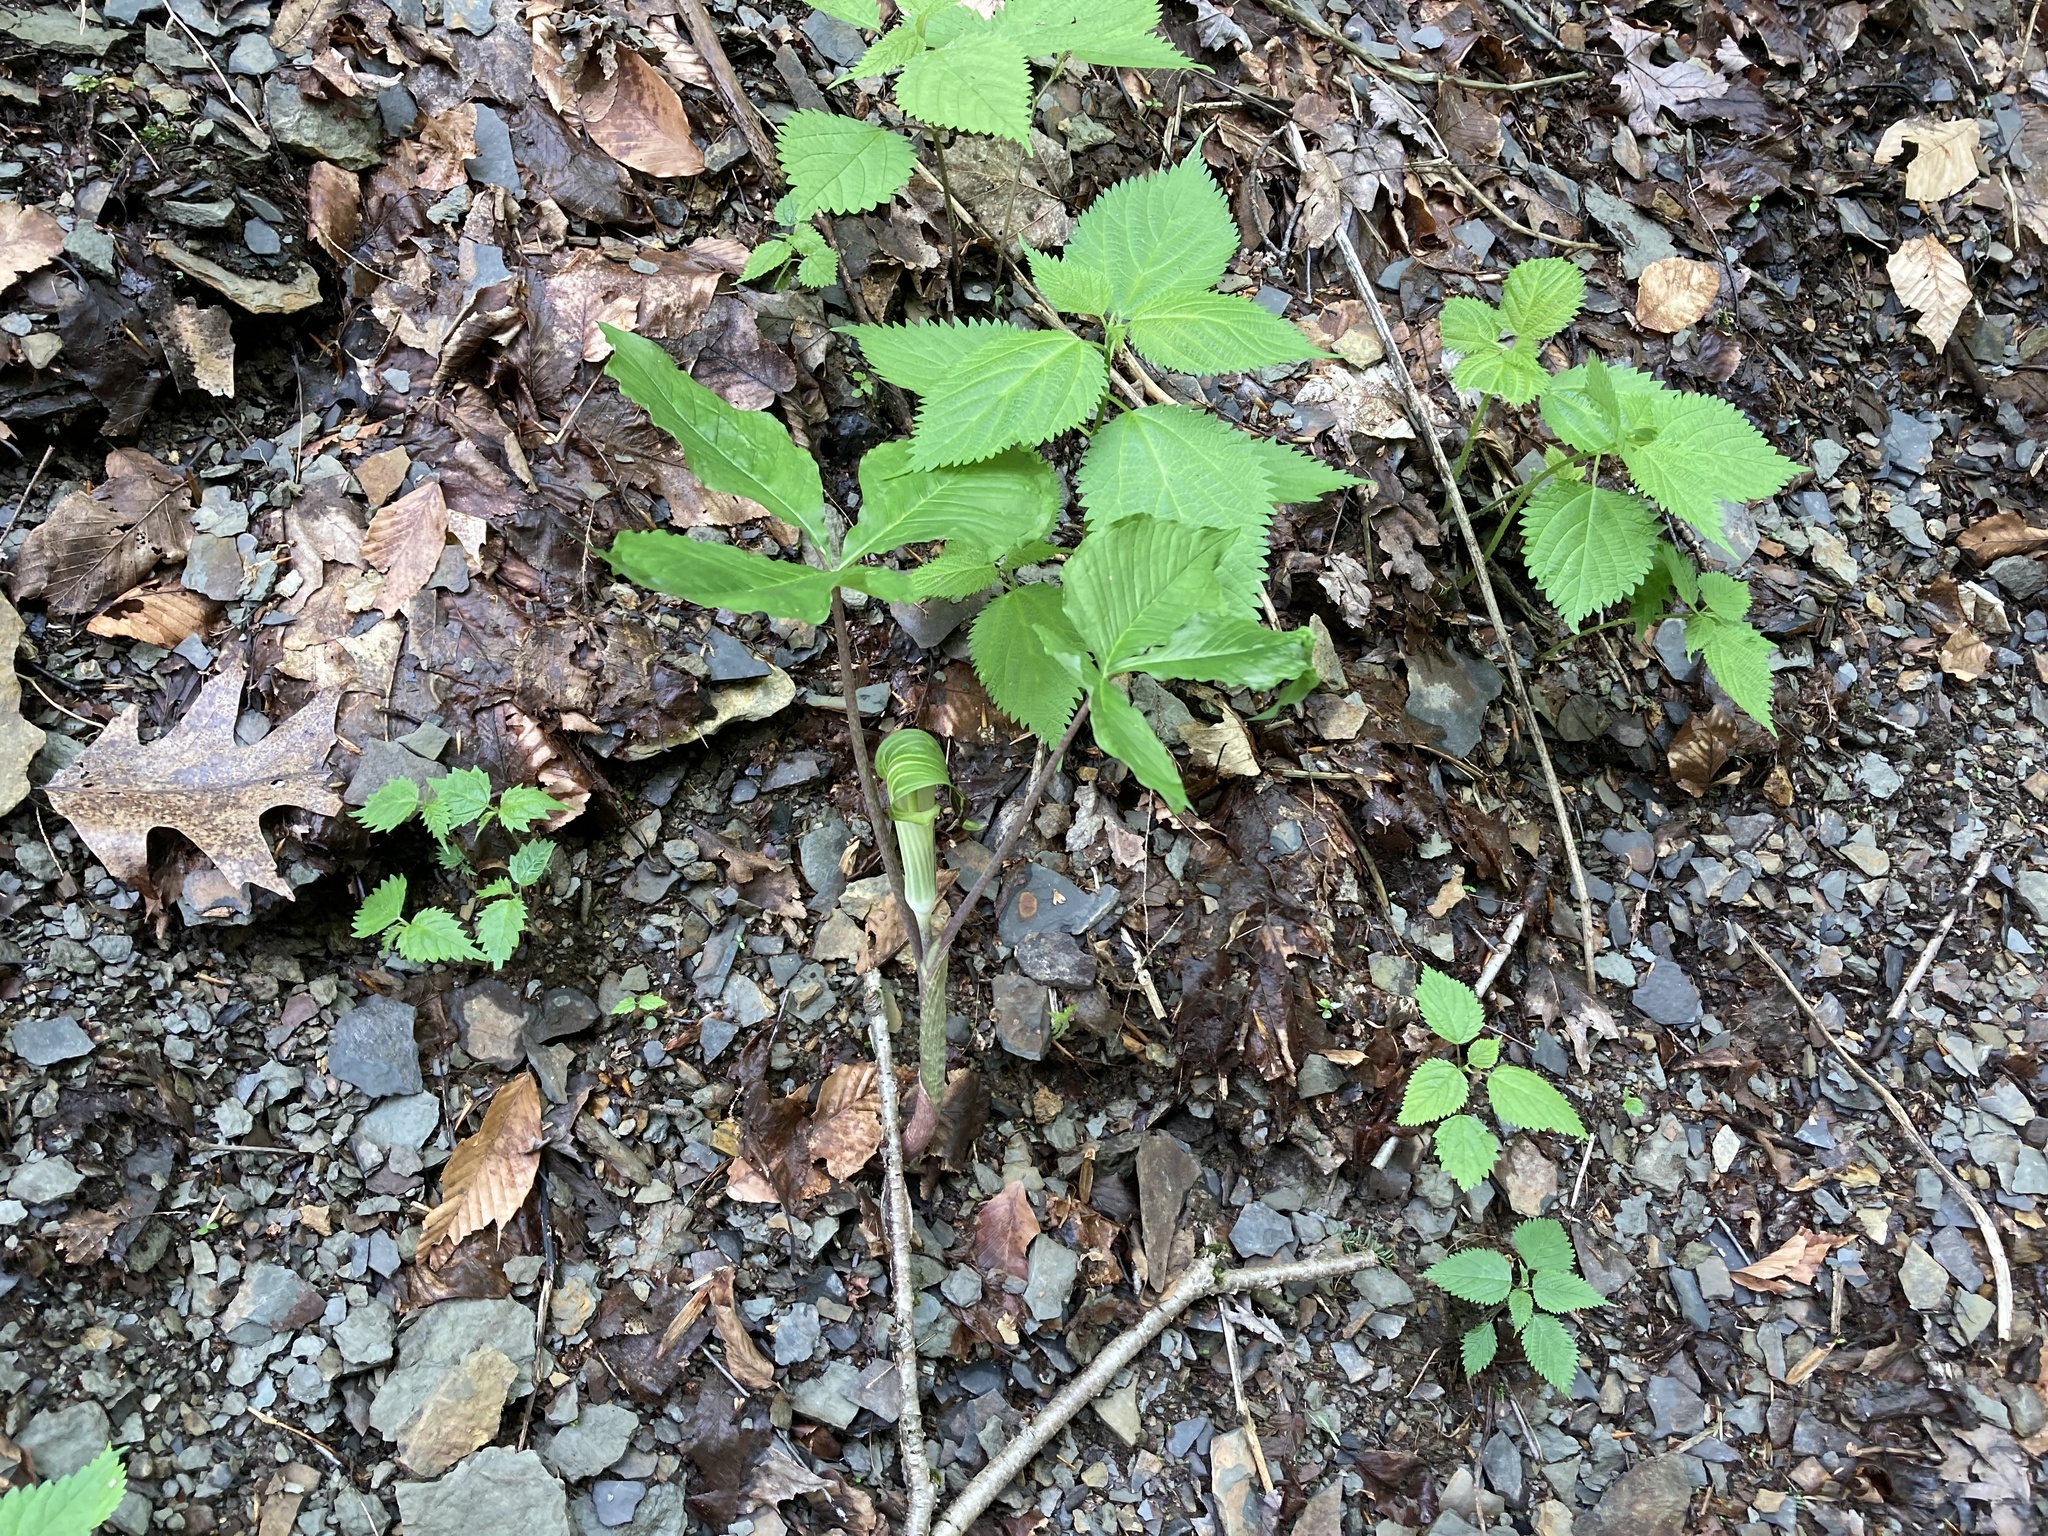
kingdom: Plantae
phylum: Tracheophyta
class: Liliopsida
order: Alismatales
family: Araceae
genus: Arisaema
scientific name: Arisaema triphyllum
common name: Jack-in-the-pulpit
